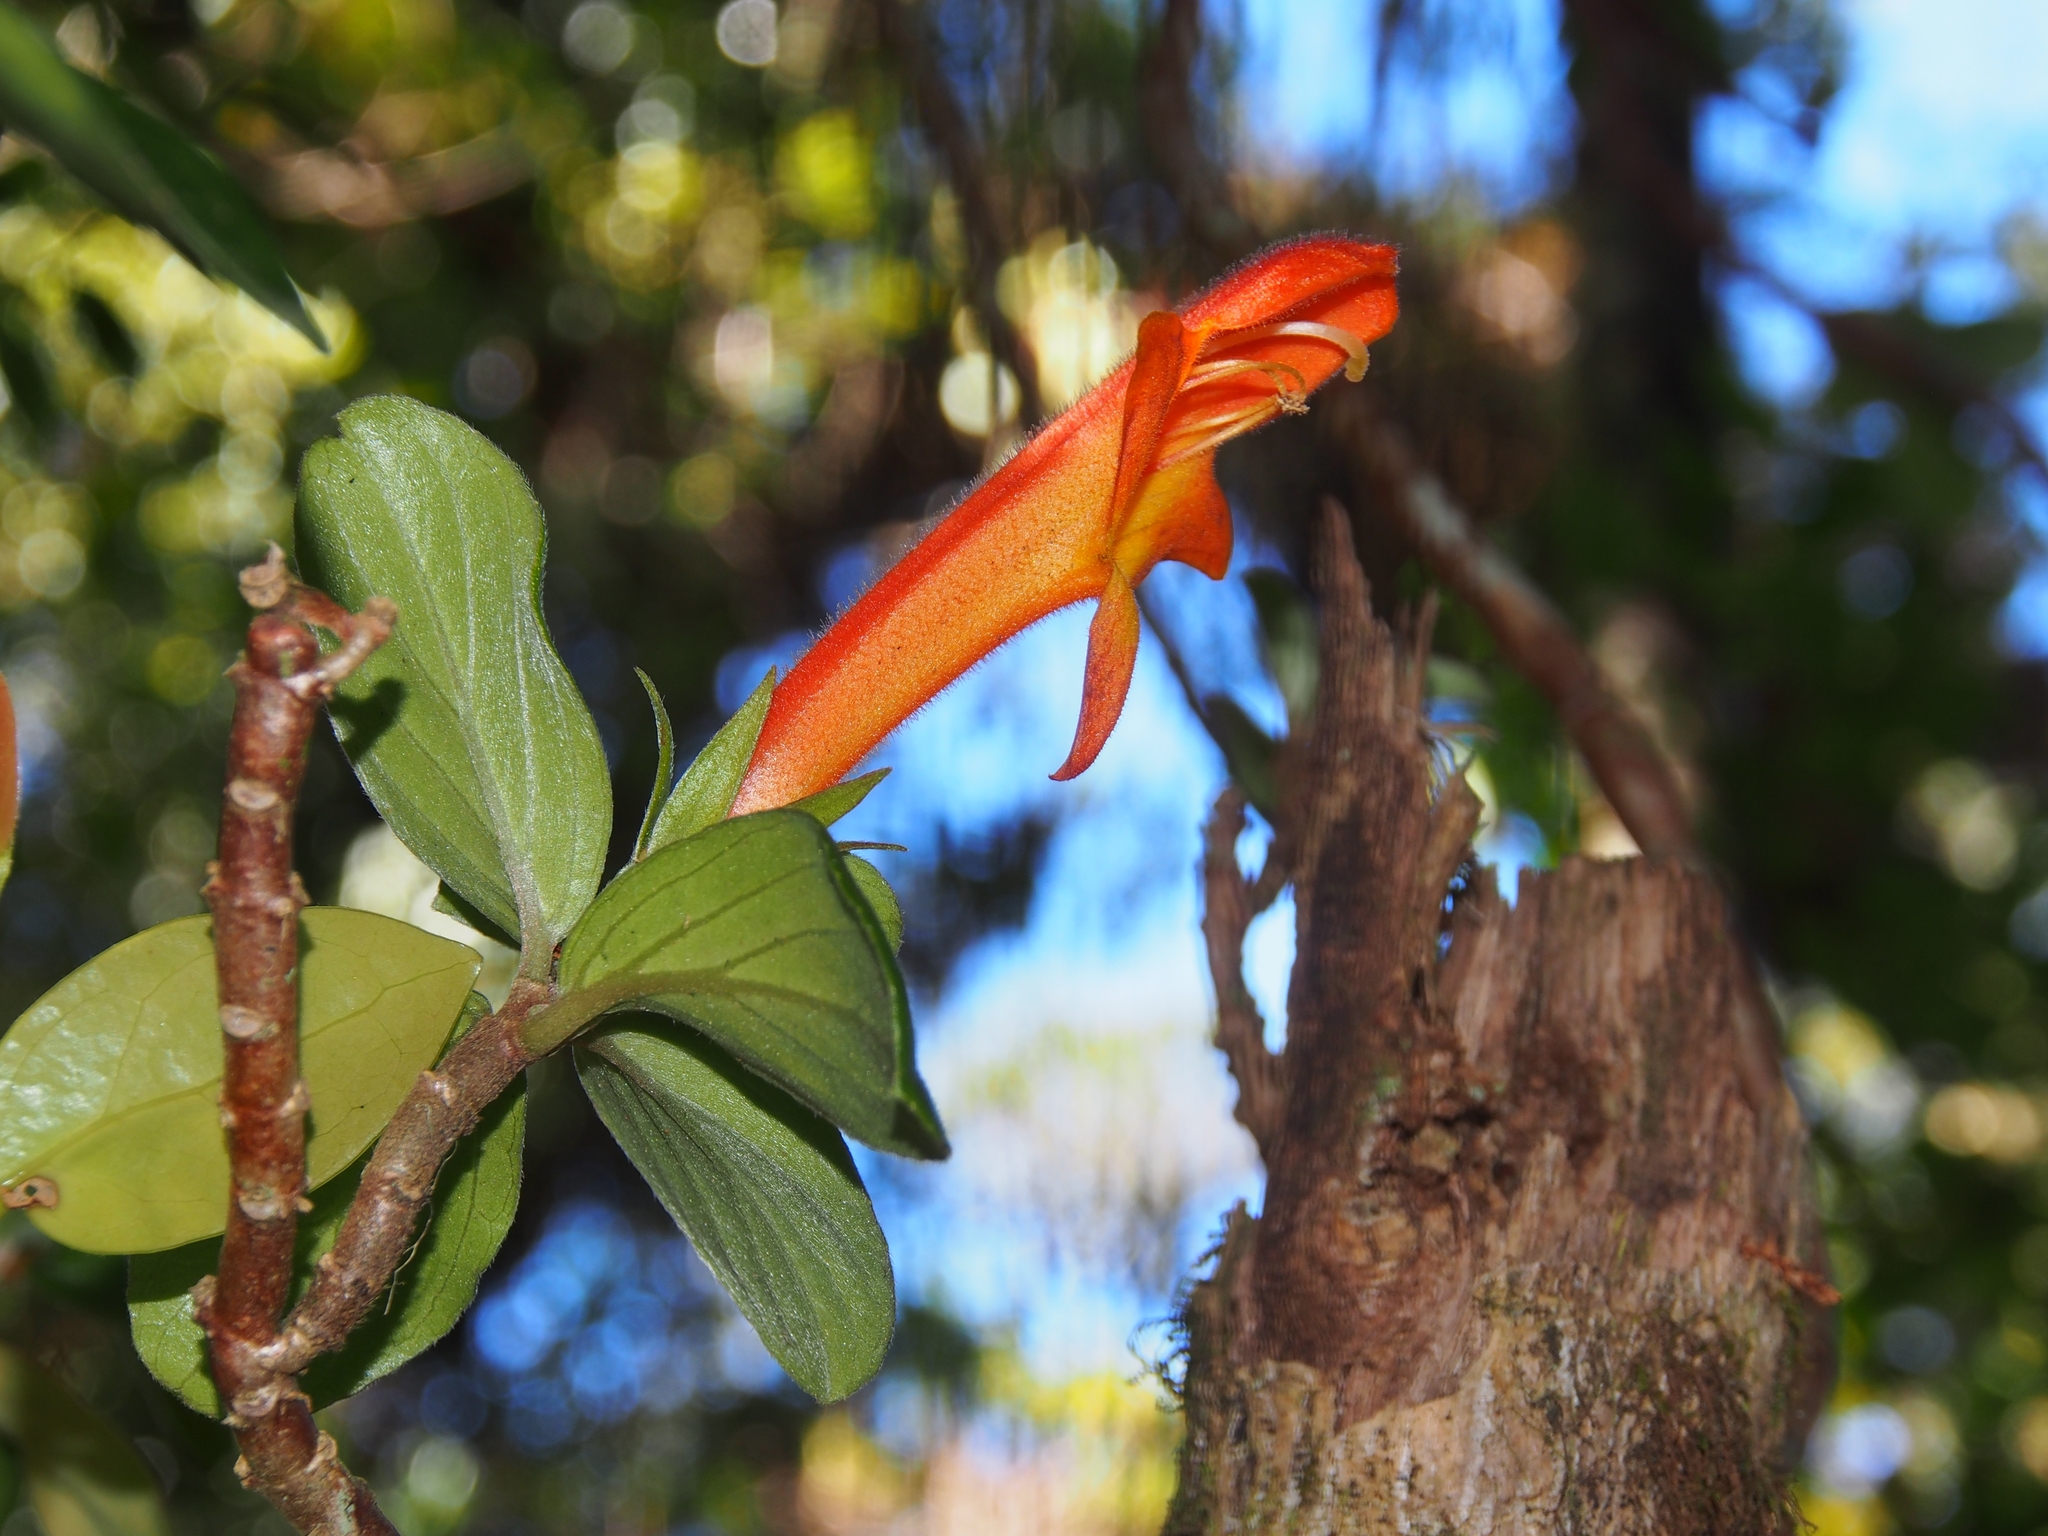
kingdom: Plantae
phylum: Tracheophyta
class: Magnoliopsida
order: Lamiales
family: Gesneriaceae
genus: Columnea
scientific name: Columnea magnifica
